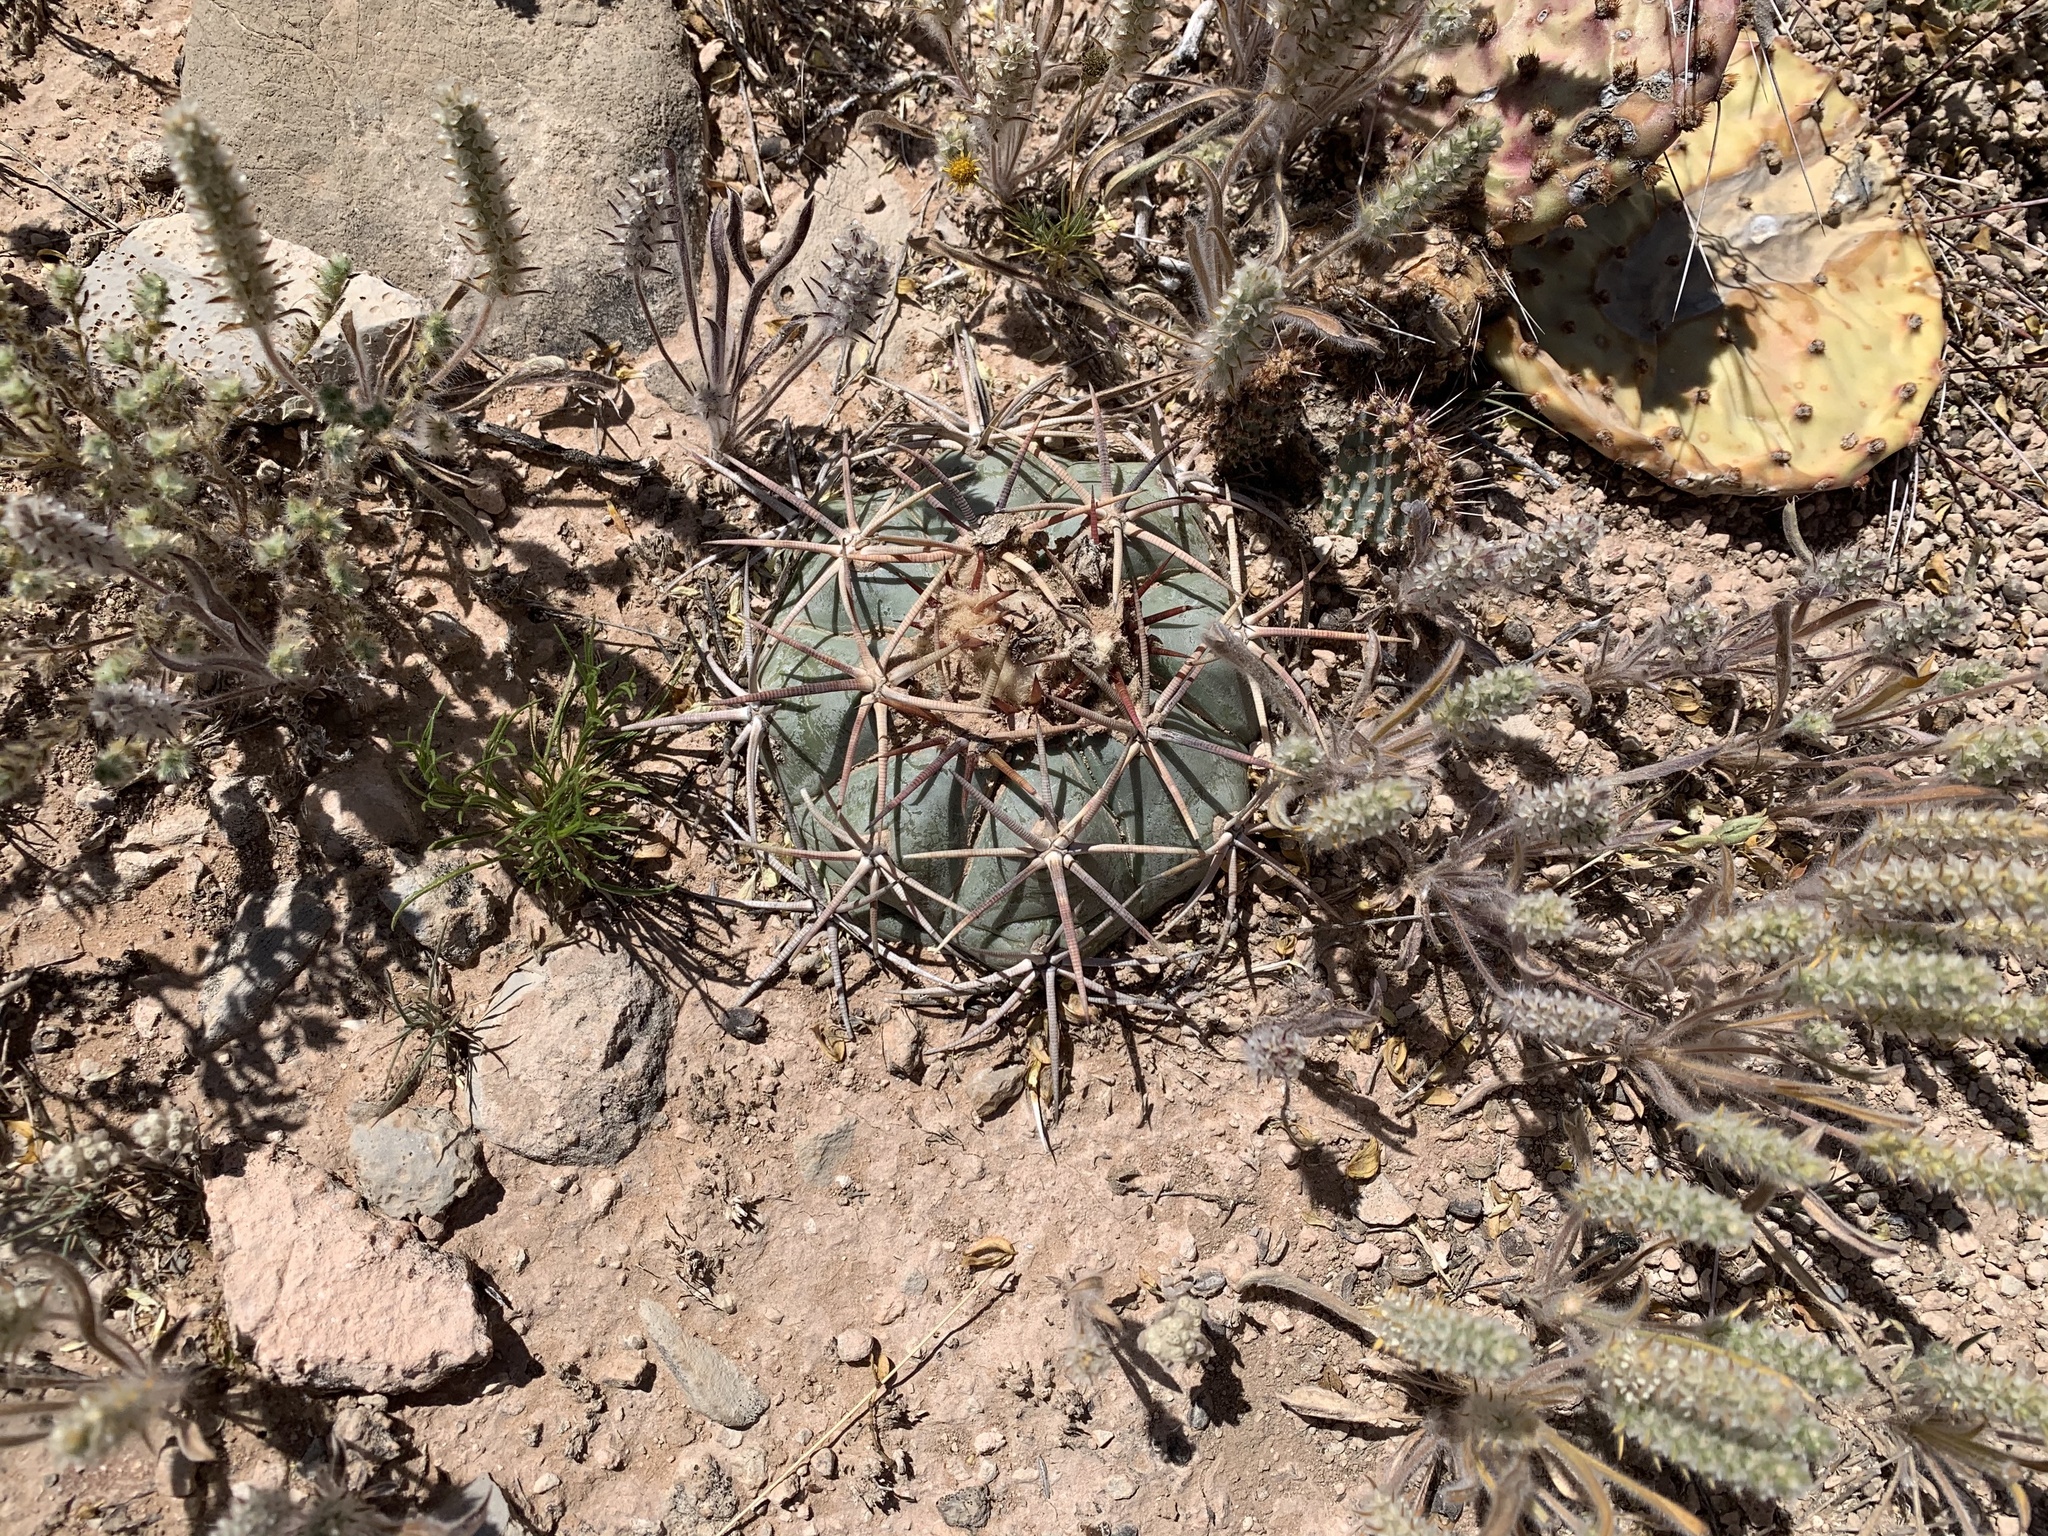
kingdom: Plantae
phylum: Tracheophyta
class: Magnoliopsida
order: Caryophyllales
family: Cactaceae
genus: Echinocactus
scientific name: Echinocactus horizonthalonius
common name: Devilshead
